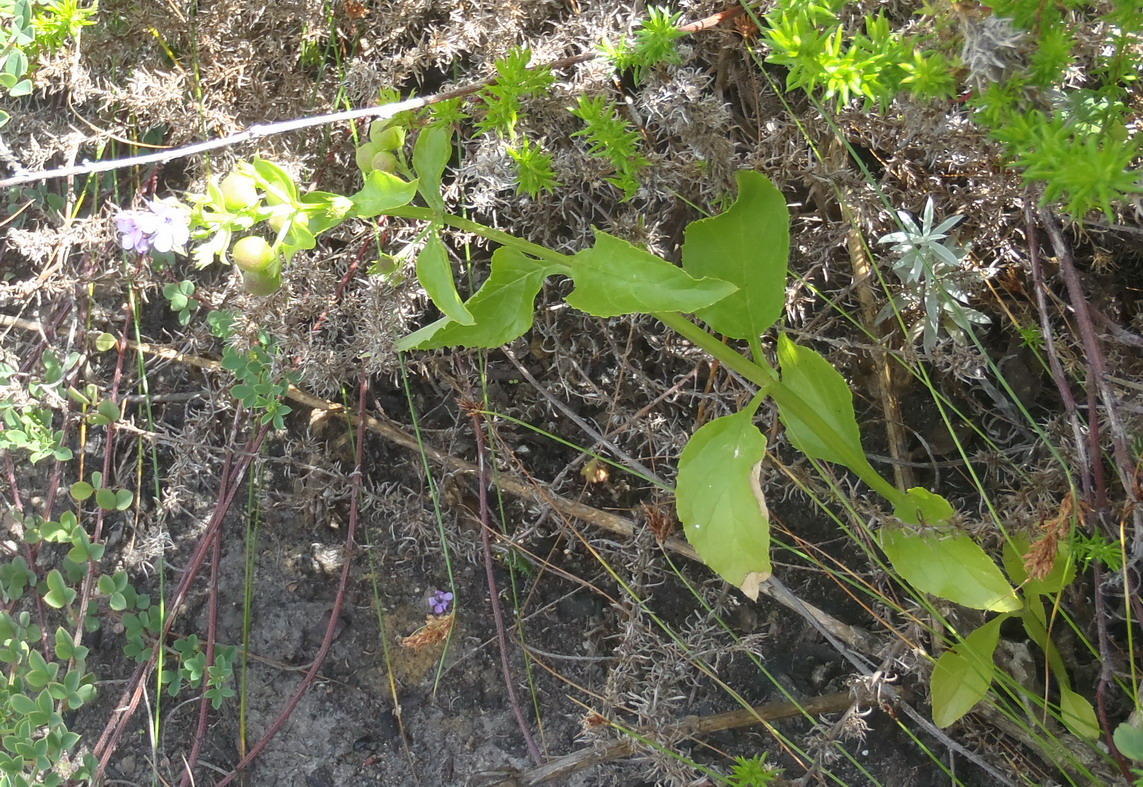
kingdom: Plantae
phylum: Tracheophyta
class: Magnoliopsida
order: Lamiales
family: Scrophulariaceae
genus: Teedia
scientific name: Teedia lucida
